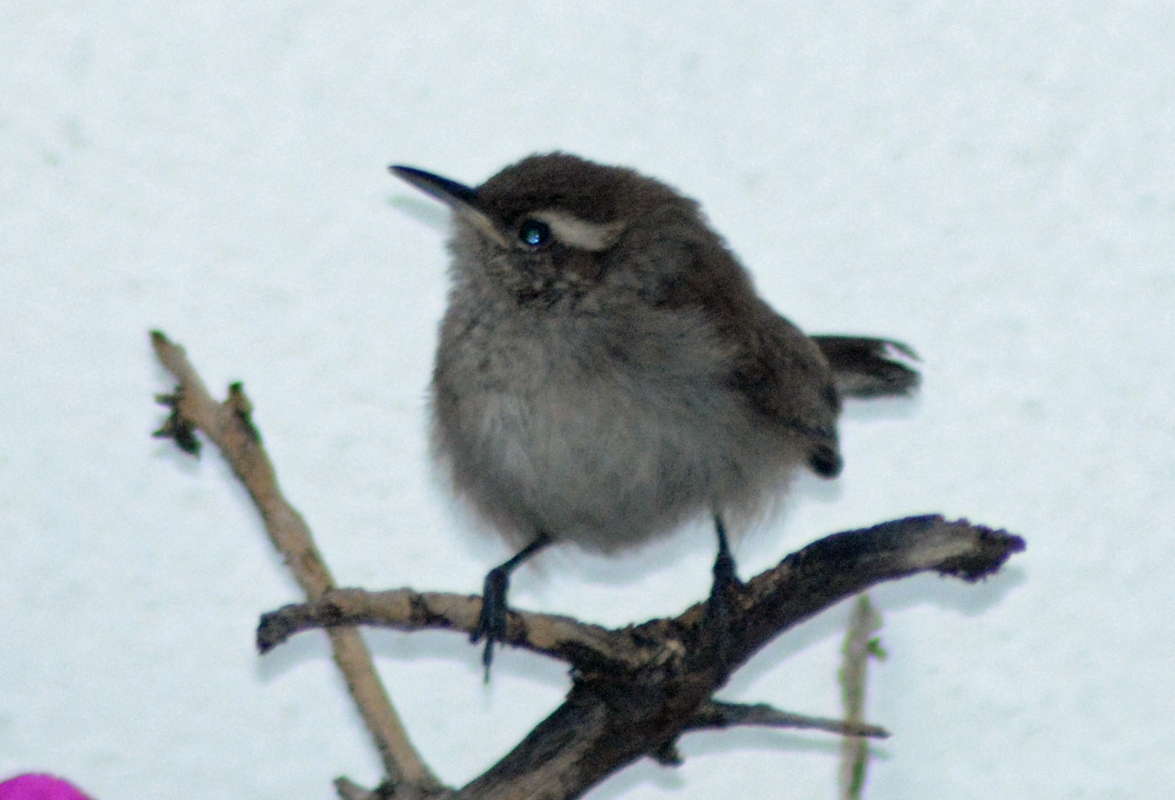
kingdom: Animalia
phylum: Chordata
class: Aves
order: Passeriformes
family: Troglodytidae
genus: Thryomanes
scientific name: Thryomanes bewickii
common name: Bewick's wren
